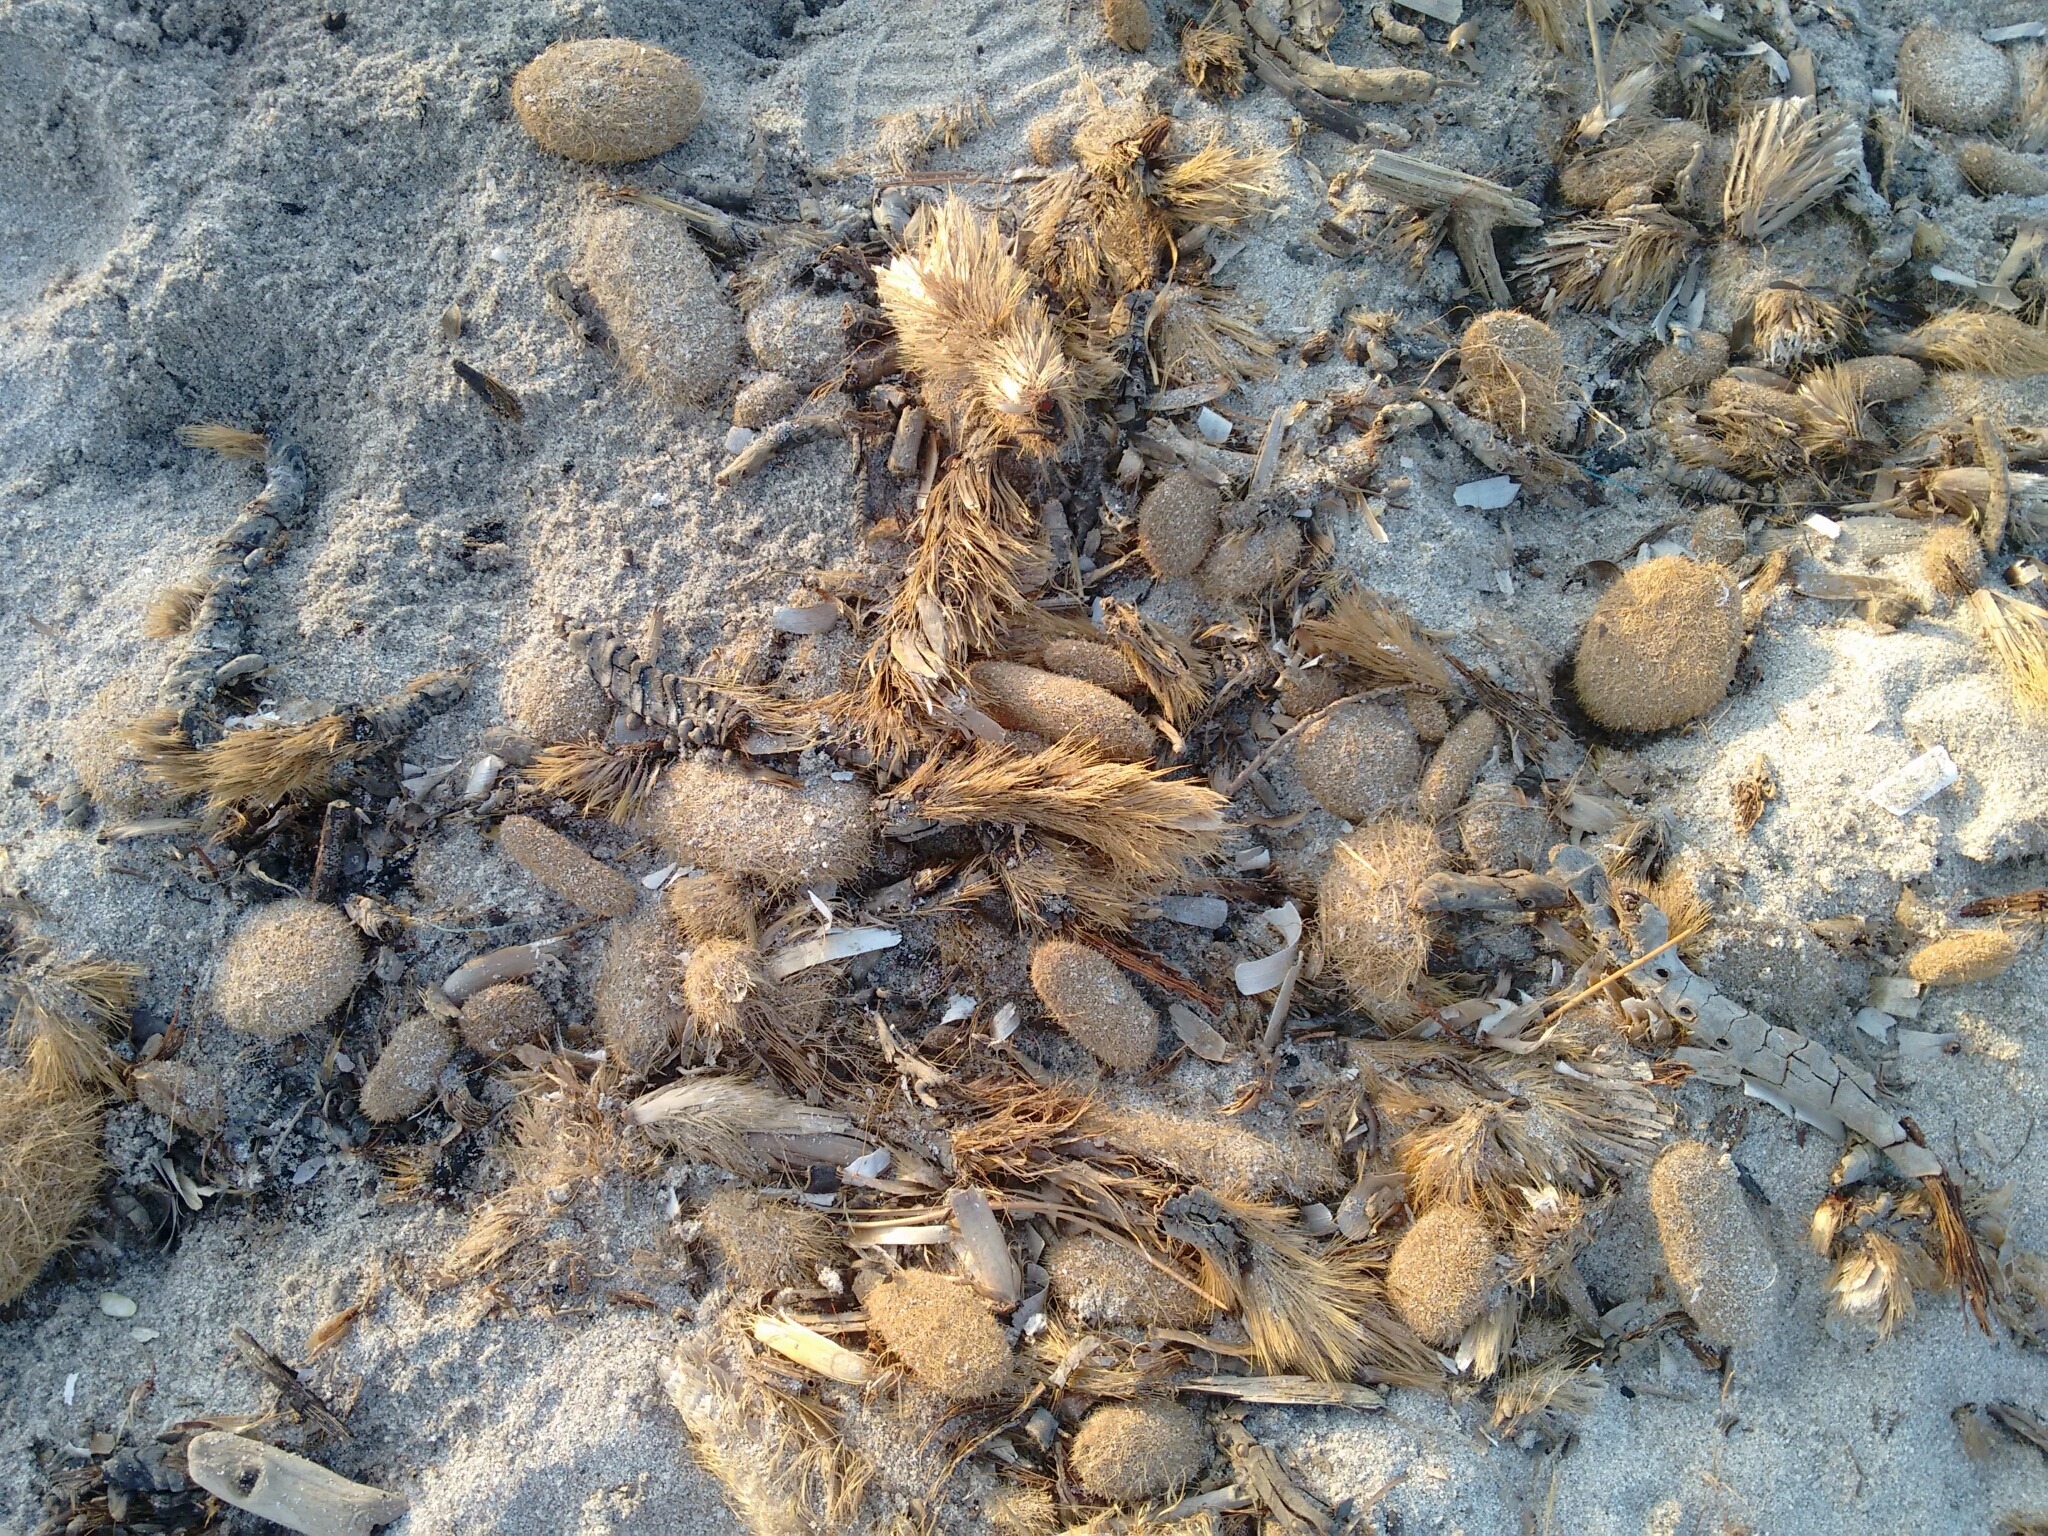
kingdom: Plantae
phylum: Tracheophyta
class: Liliopsida
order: Alismatales
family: Posidoniaceae
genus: Posidonia
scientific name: Posidonia oceanica
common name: Mediterranean tapeweed
